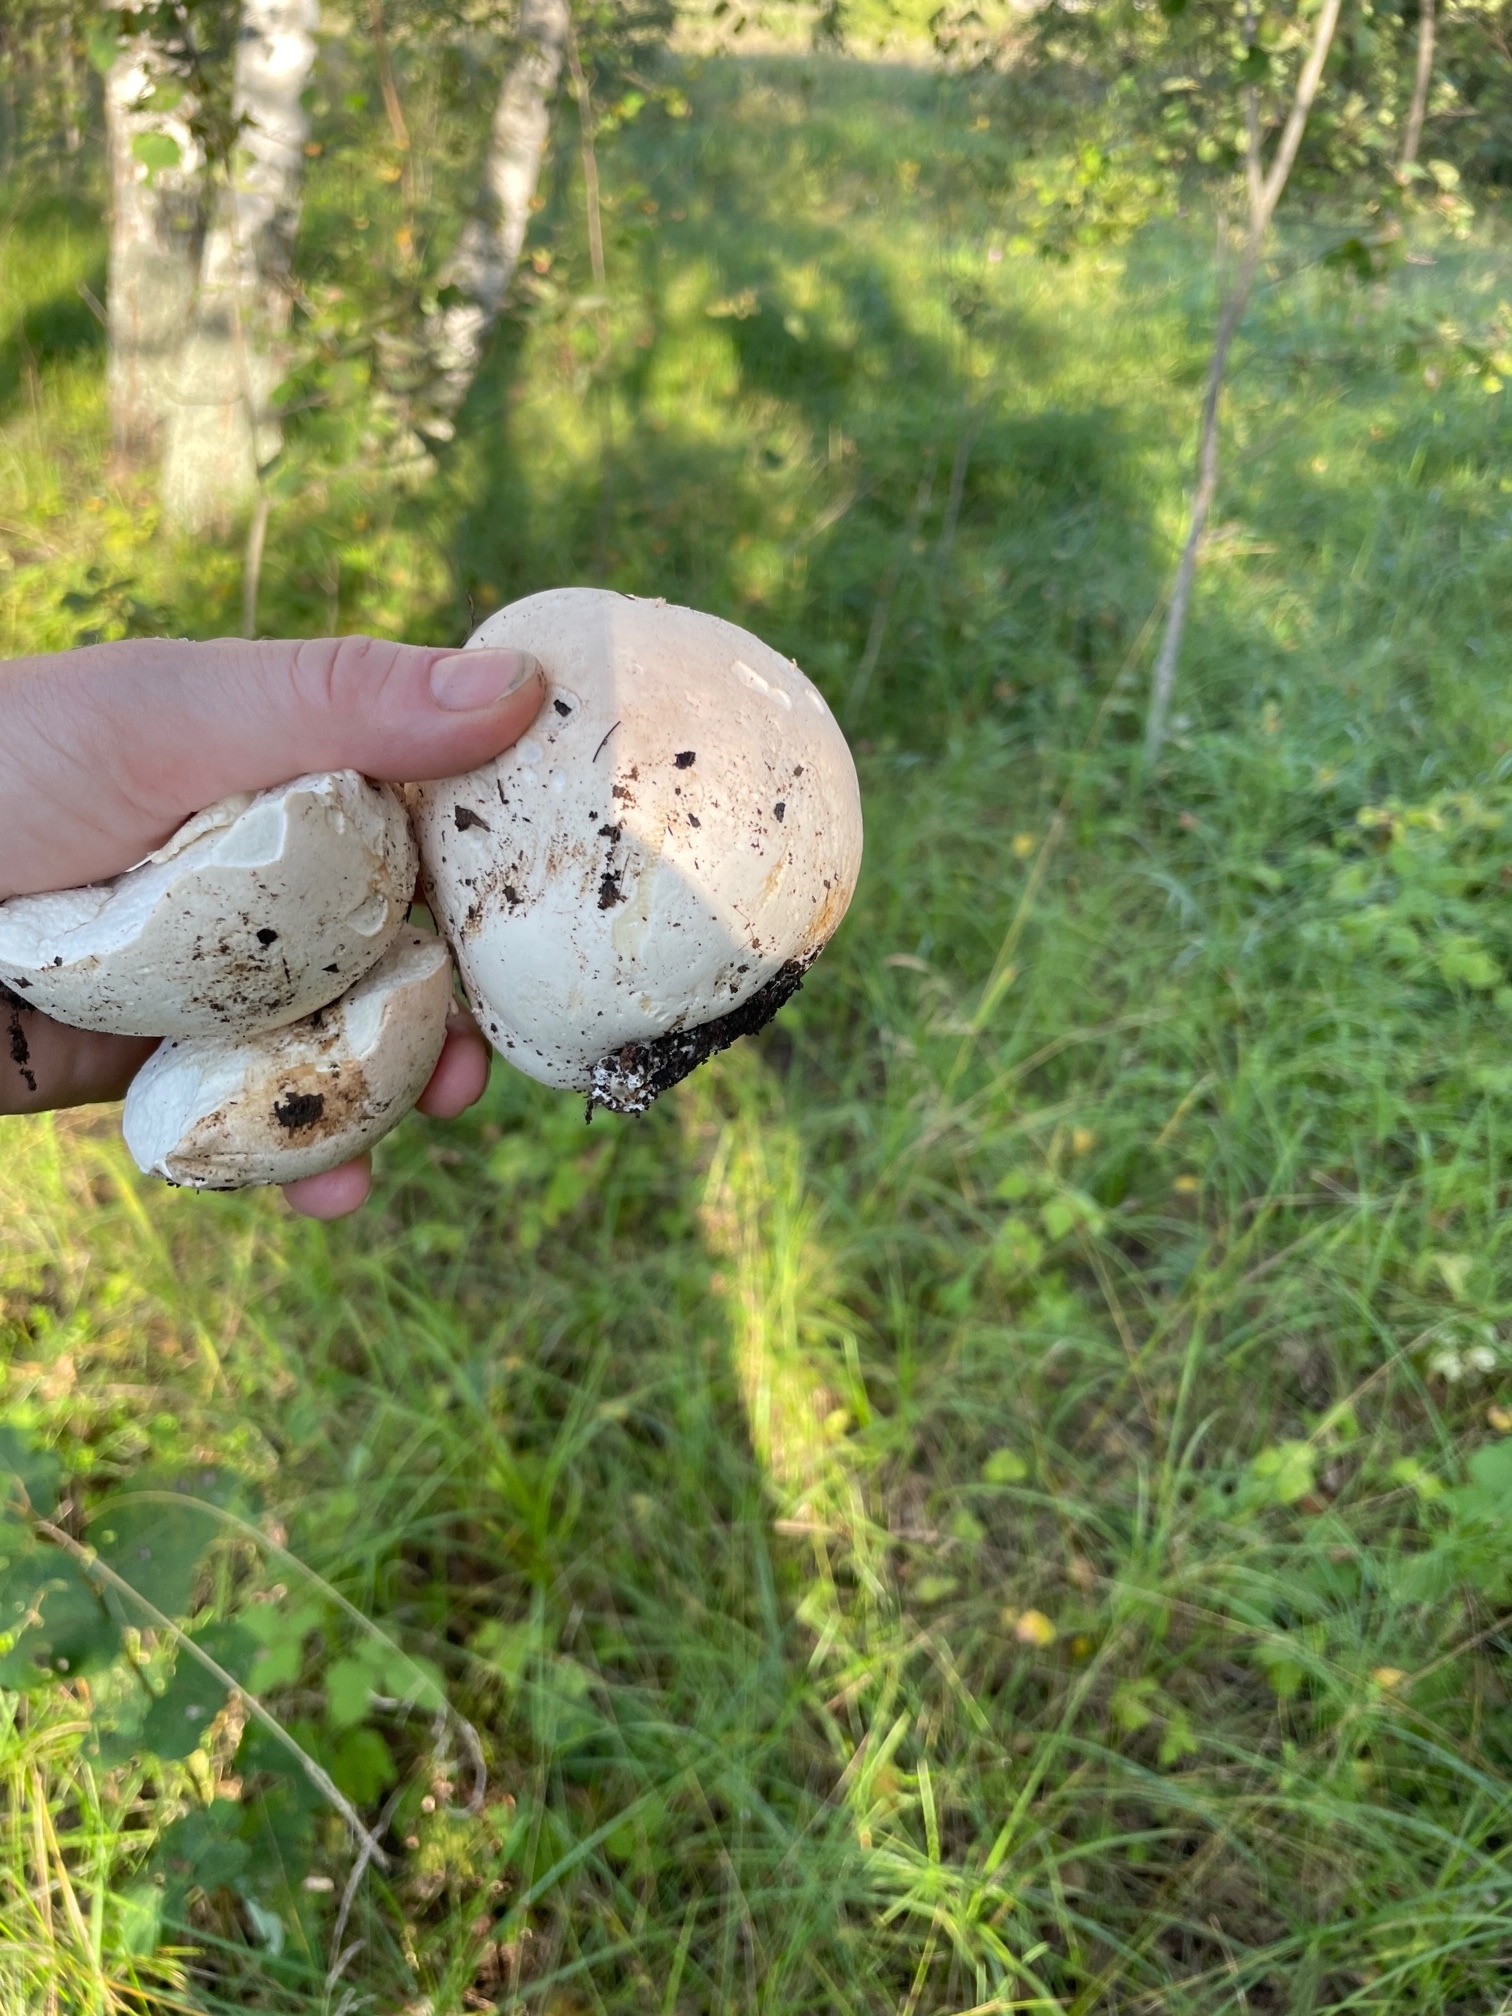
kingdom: Fungi
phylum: Basidiomycota
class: Agaricomycetes
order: Agaricales
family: Lycoperdaceae
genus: Calvatia
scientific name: Calvatia gigantea
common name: Giant puffball
